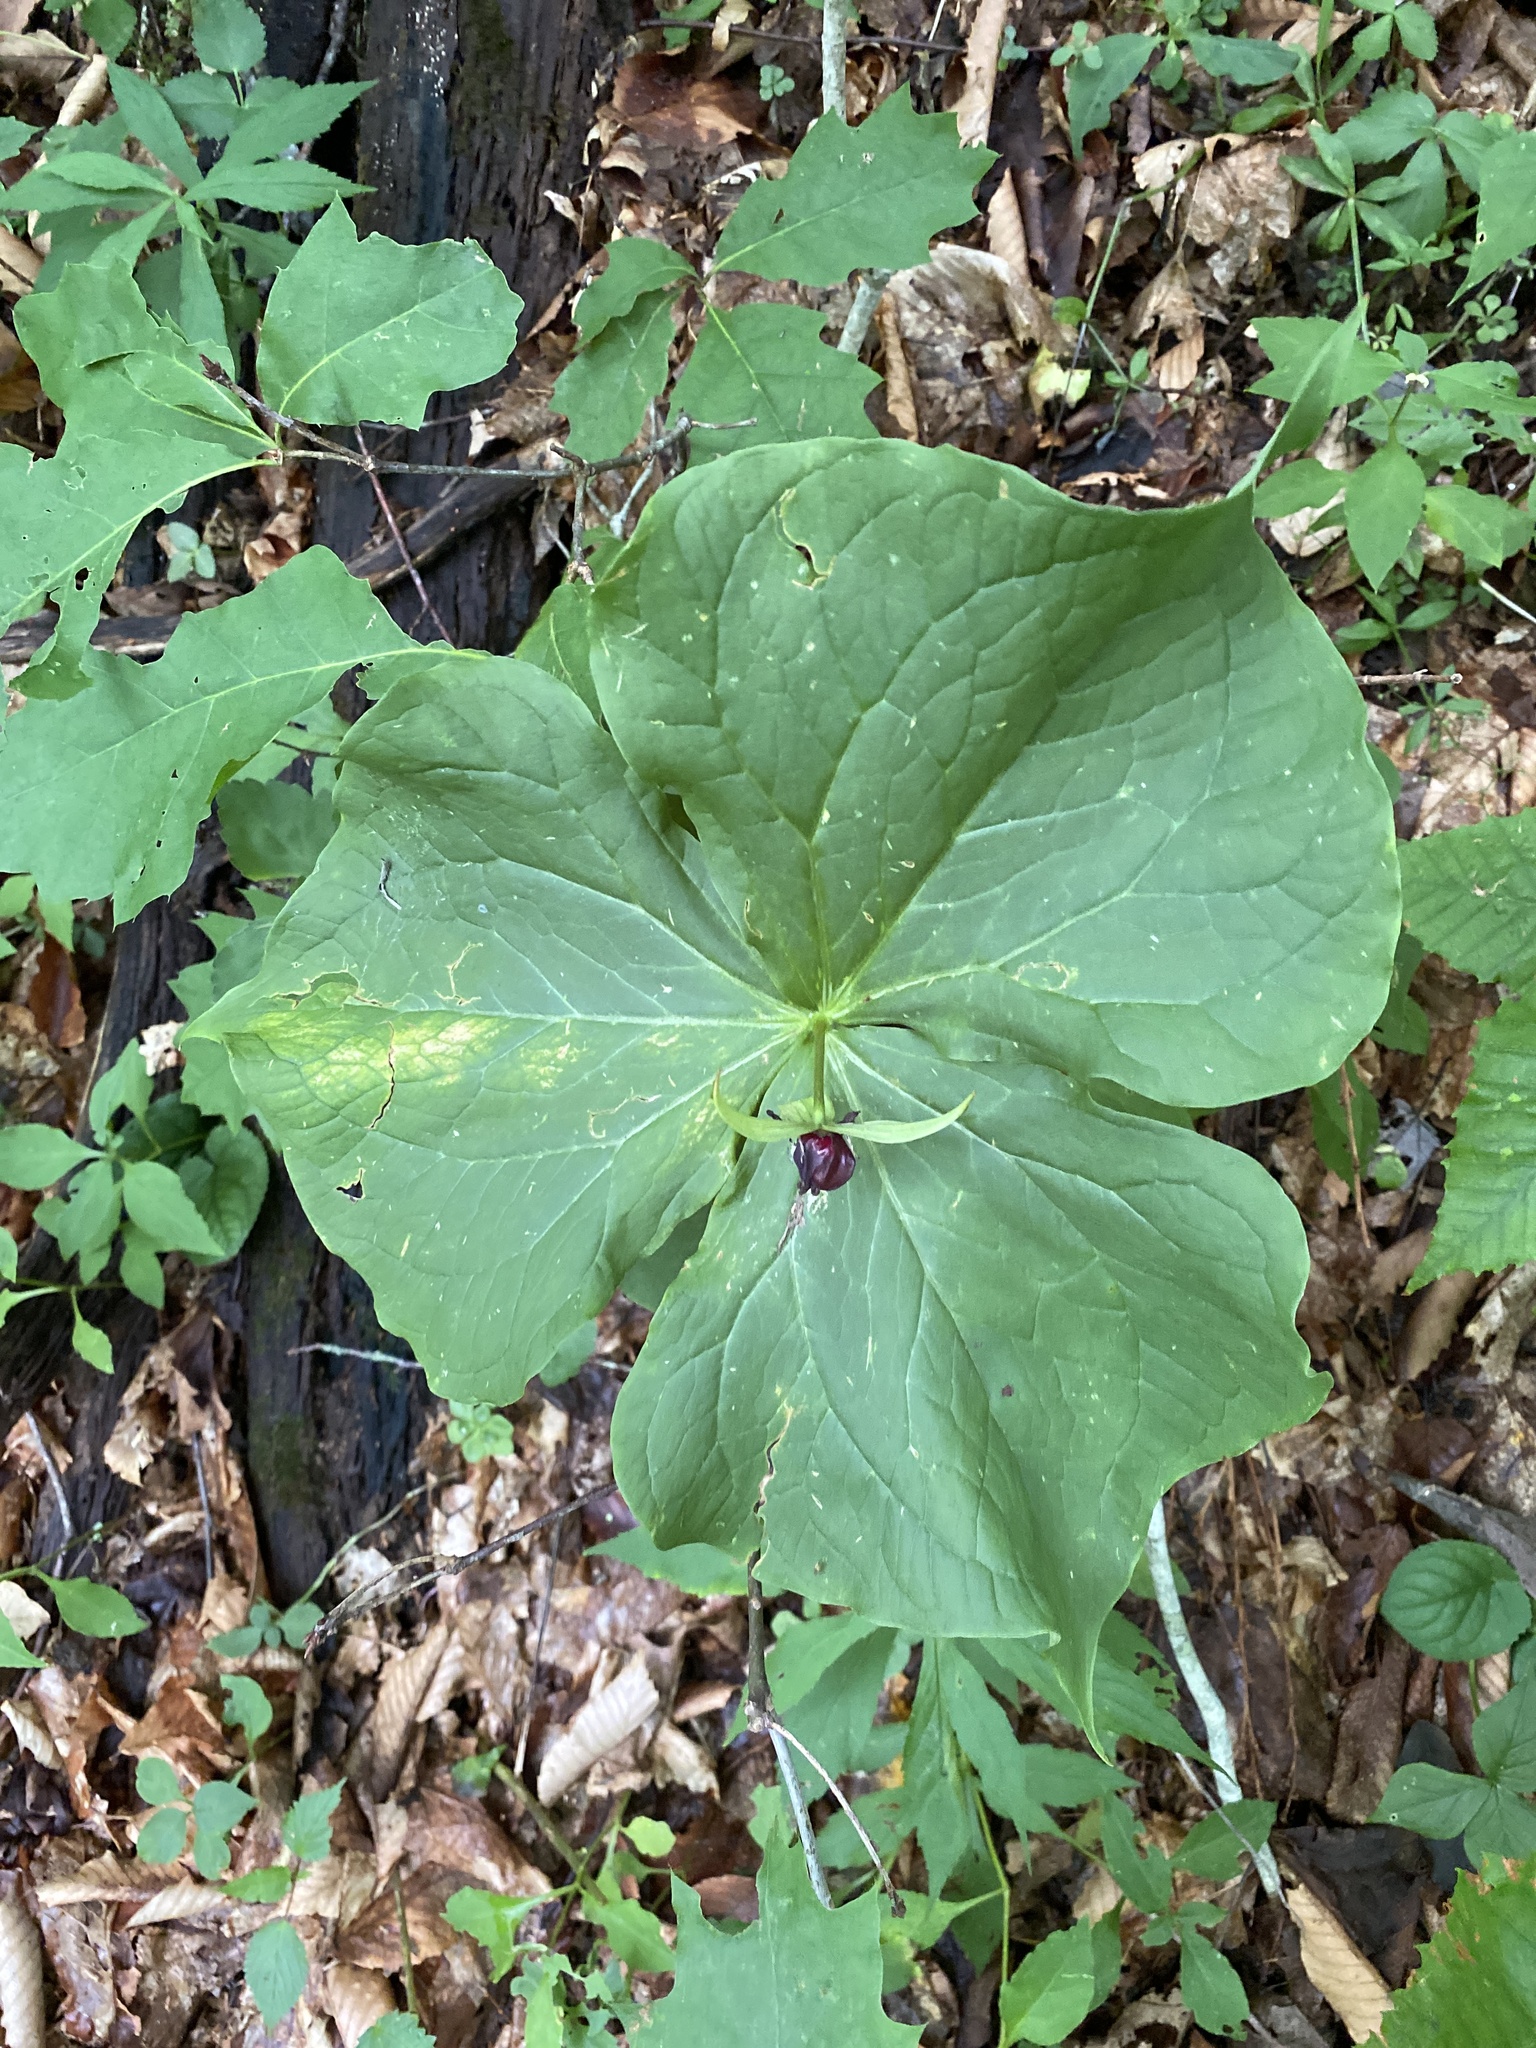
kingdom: Plantae
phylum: Tracheophyta
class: Liliopsida
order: Liliales
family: Melanthiaceae
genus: Trillium
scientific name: Trillium erectum
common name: Purple trillium
